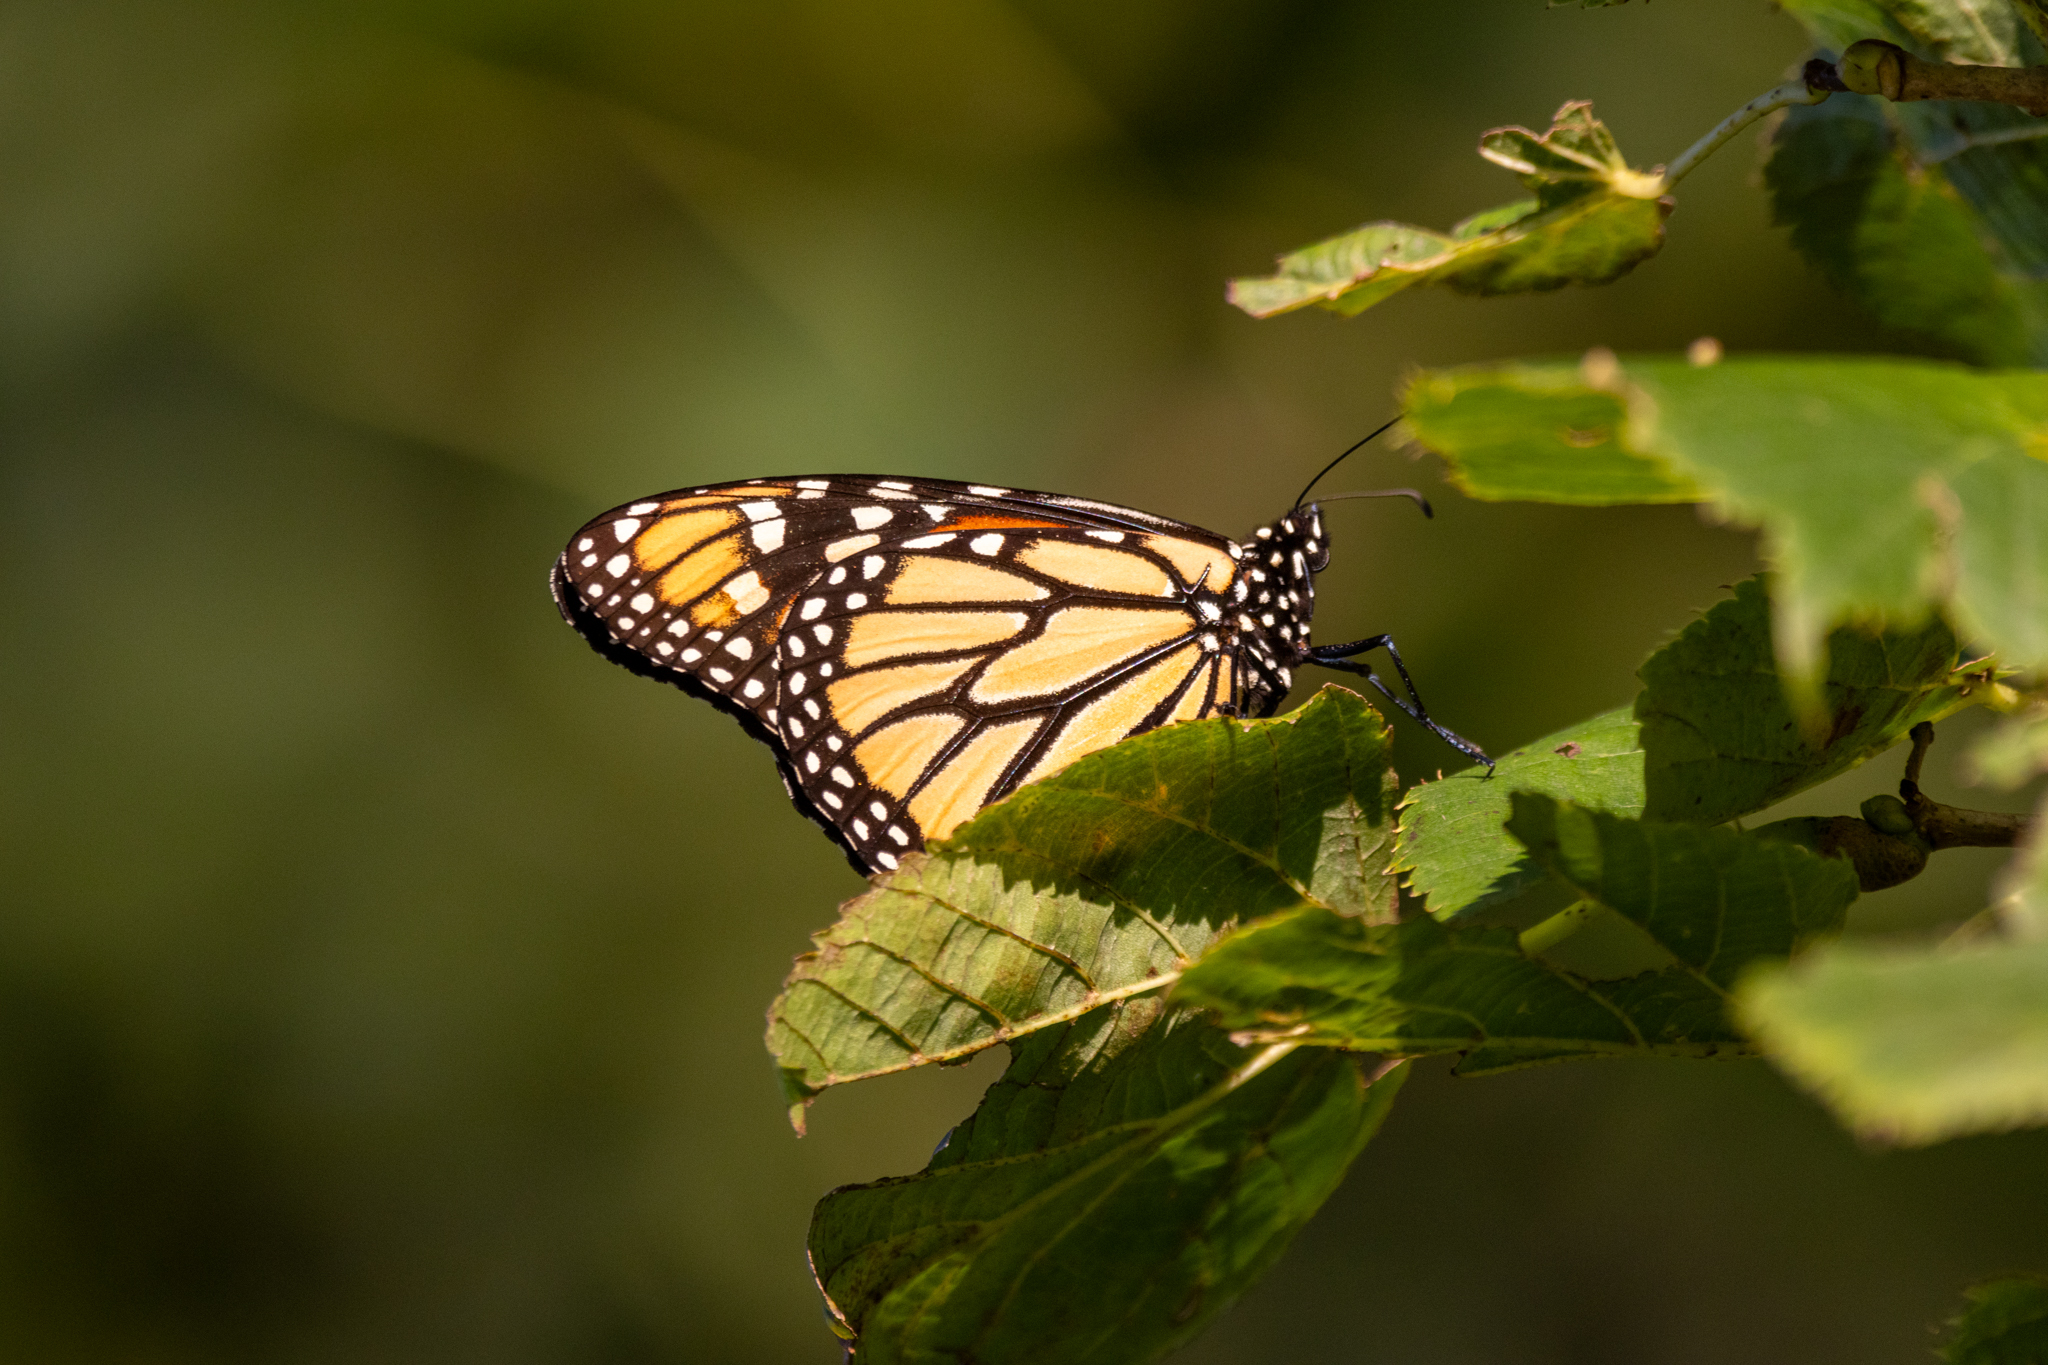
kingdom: Animalia
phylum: Arthropoda
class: Insecta
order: Lepidoptera
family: Nymphalidae
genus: Danaus
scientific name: Danaus plexippus
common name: Monarch
